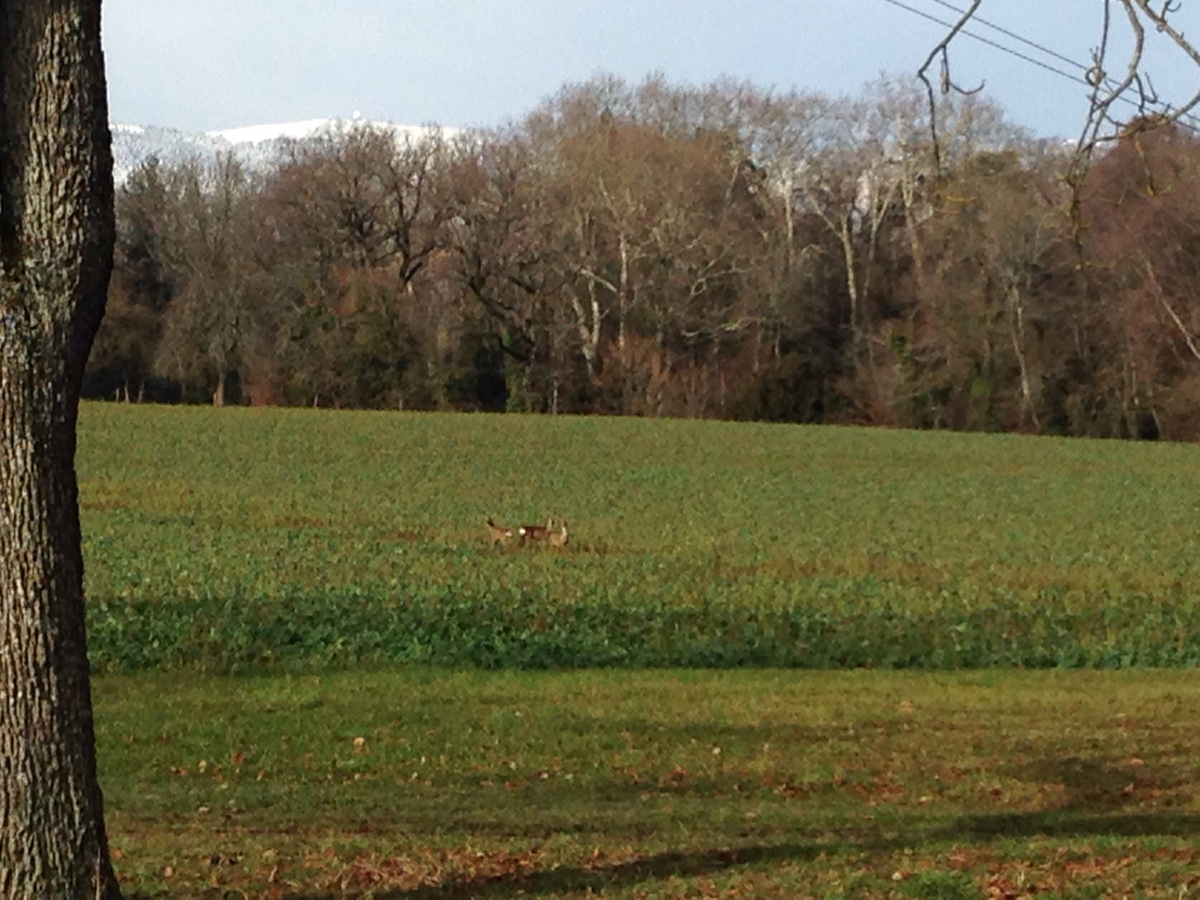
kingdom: Animalia
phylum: Chordata
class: Mammalia
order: Artiodactyla
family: Cervidae
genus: Capreolus
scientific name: Capreolus capreolus
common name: Western roe deer
